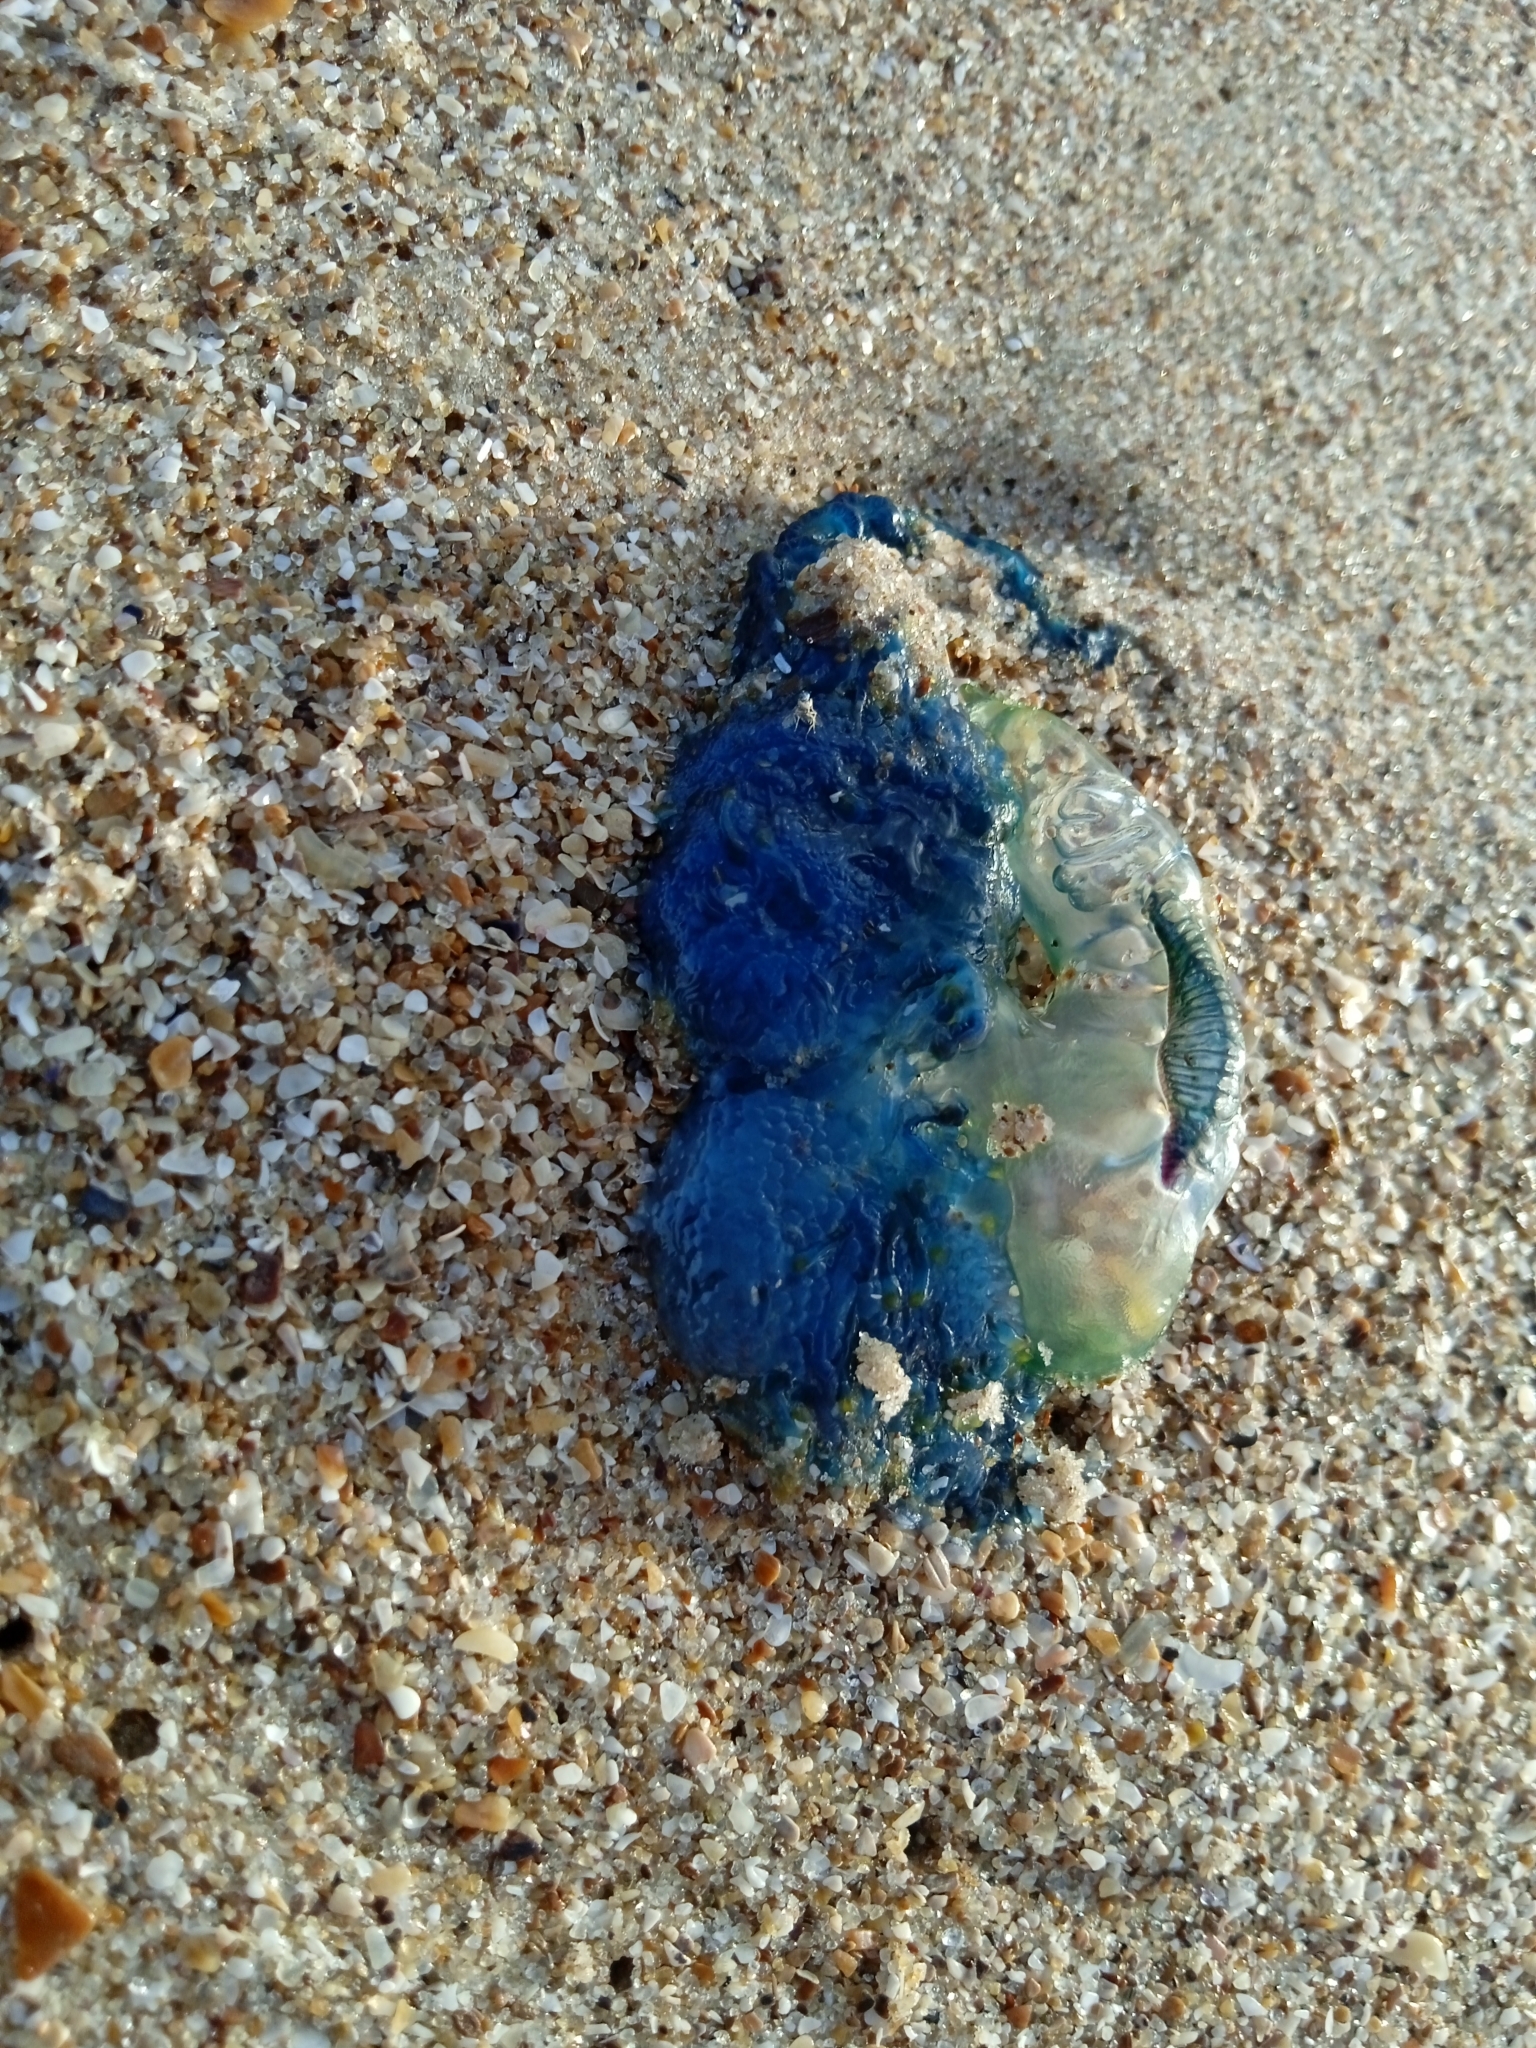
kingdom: Animalia
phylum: Cnidaria
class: Hydrozoa
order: Siphonophorae
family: Physaliidae
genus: Physalia
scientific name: Physalia physalis
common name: Portuguese man-of-war
